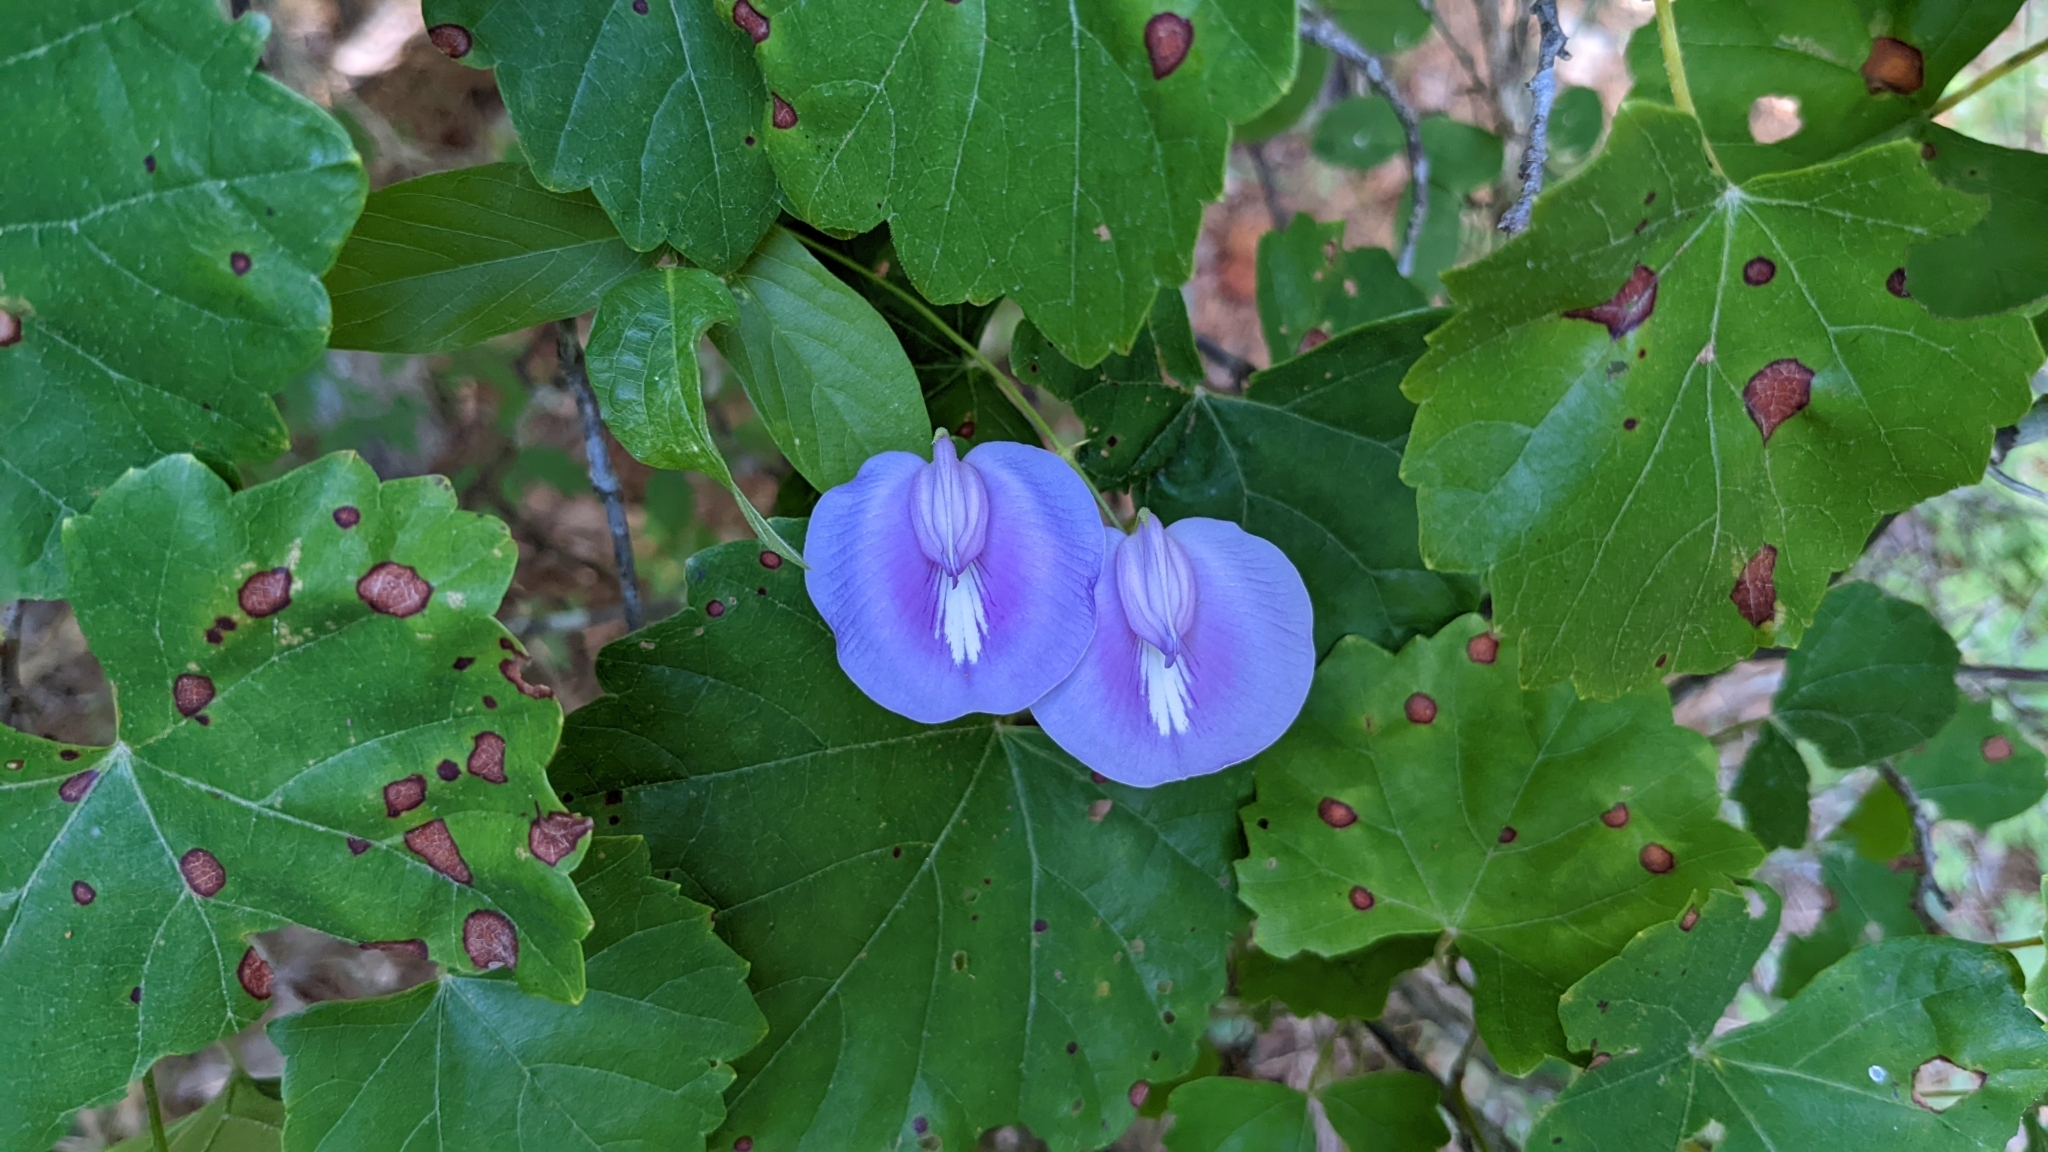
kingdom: Plantae
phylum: Tracheophyta
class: Magnoliopsida
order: Fabales
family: Fabaceae
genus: Centrosema
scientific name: Centrosema virginianum
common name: Butterfly-pea
